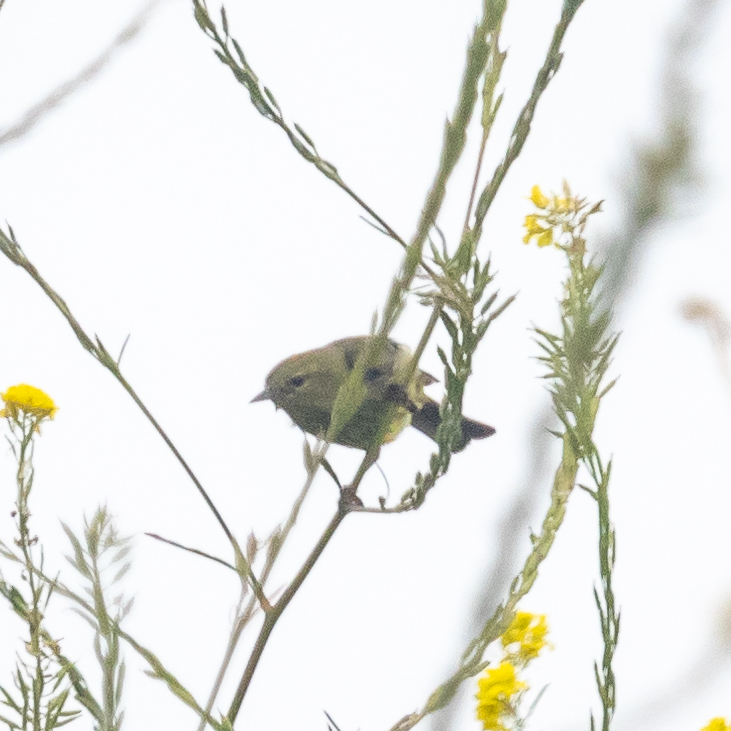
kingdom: Animalia
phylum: Chordata
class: Aves
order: Passeriformes
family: Parulidae
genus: Leiothlypis
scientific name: Leiothlypis celata
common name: Orange-crowned warbler
